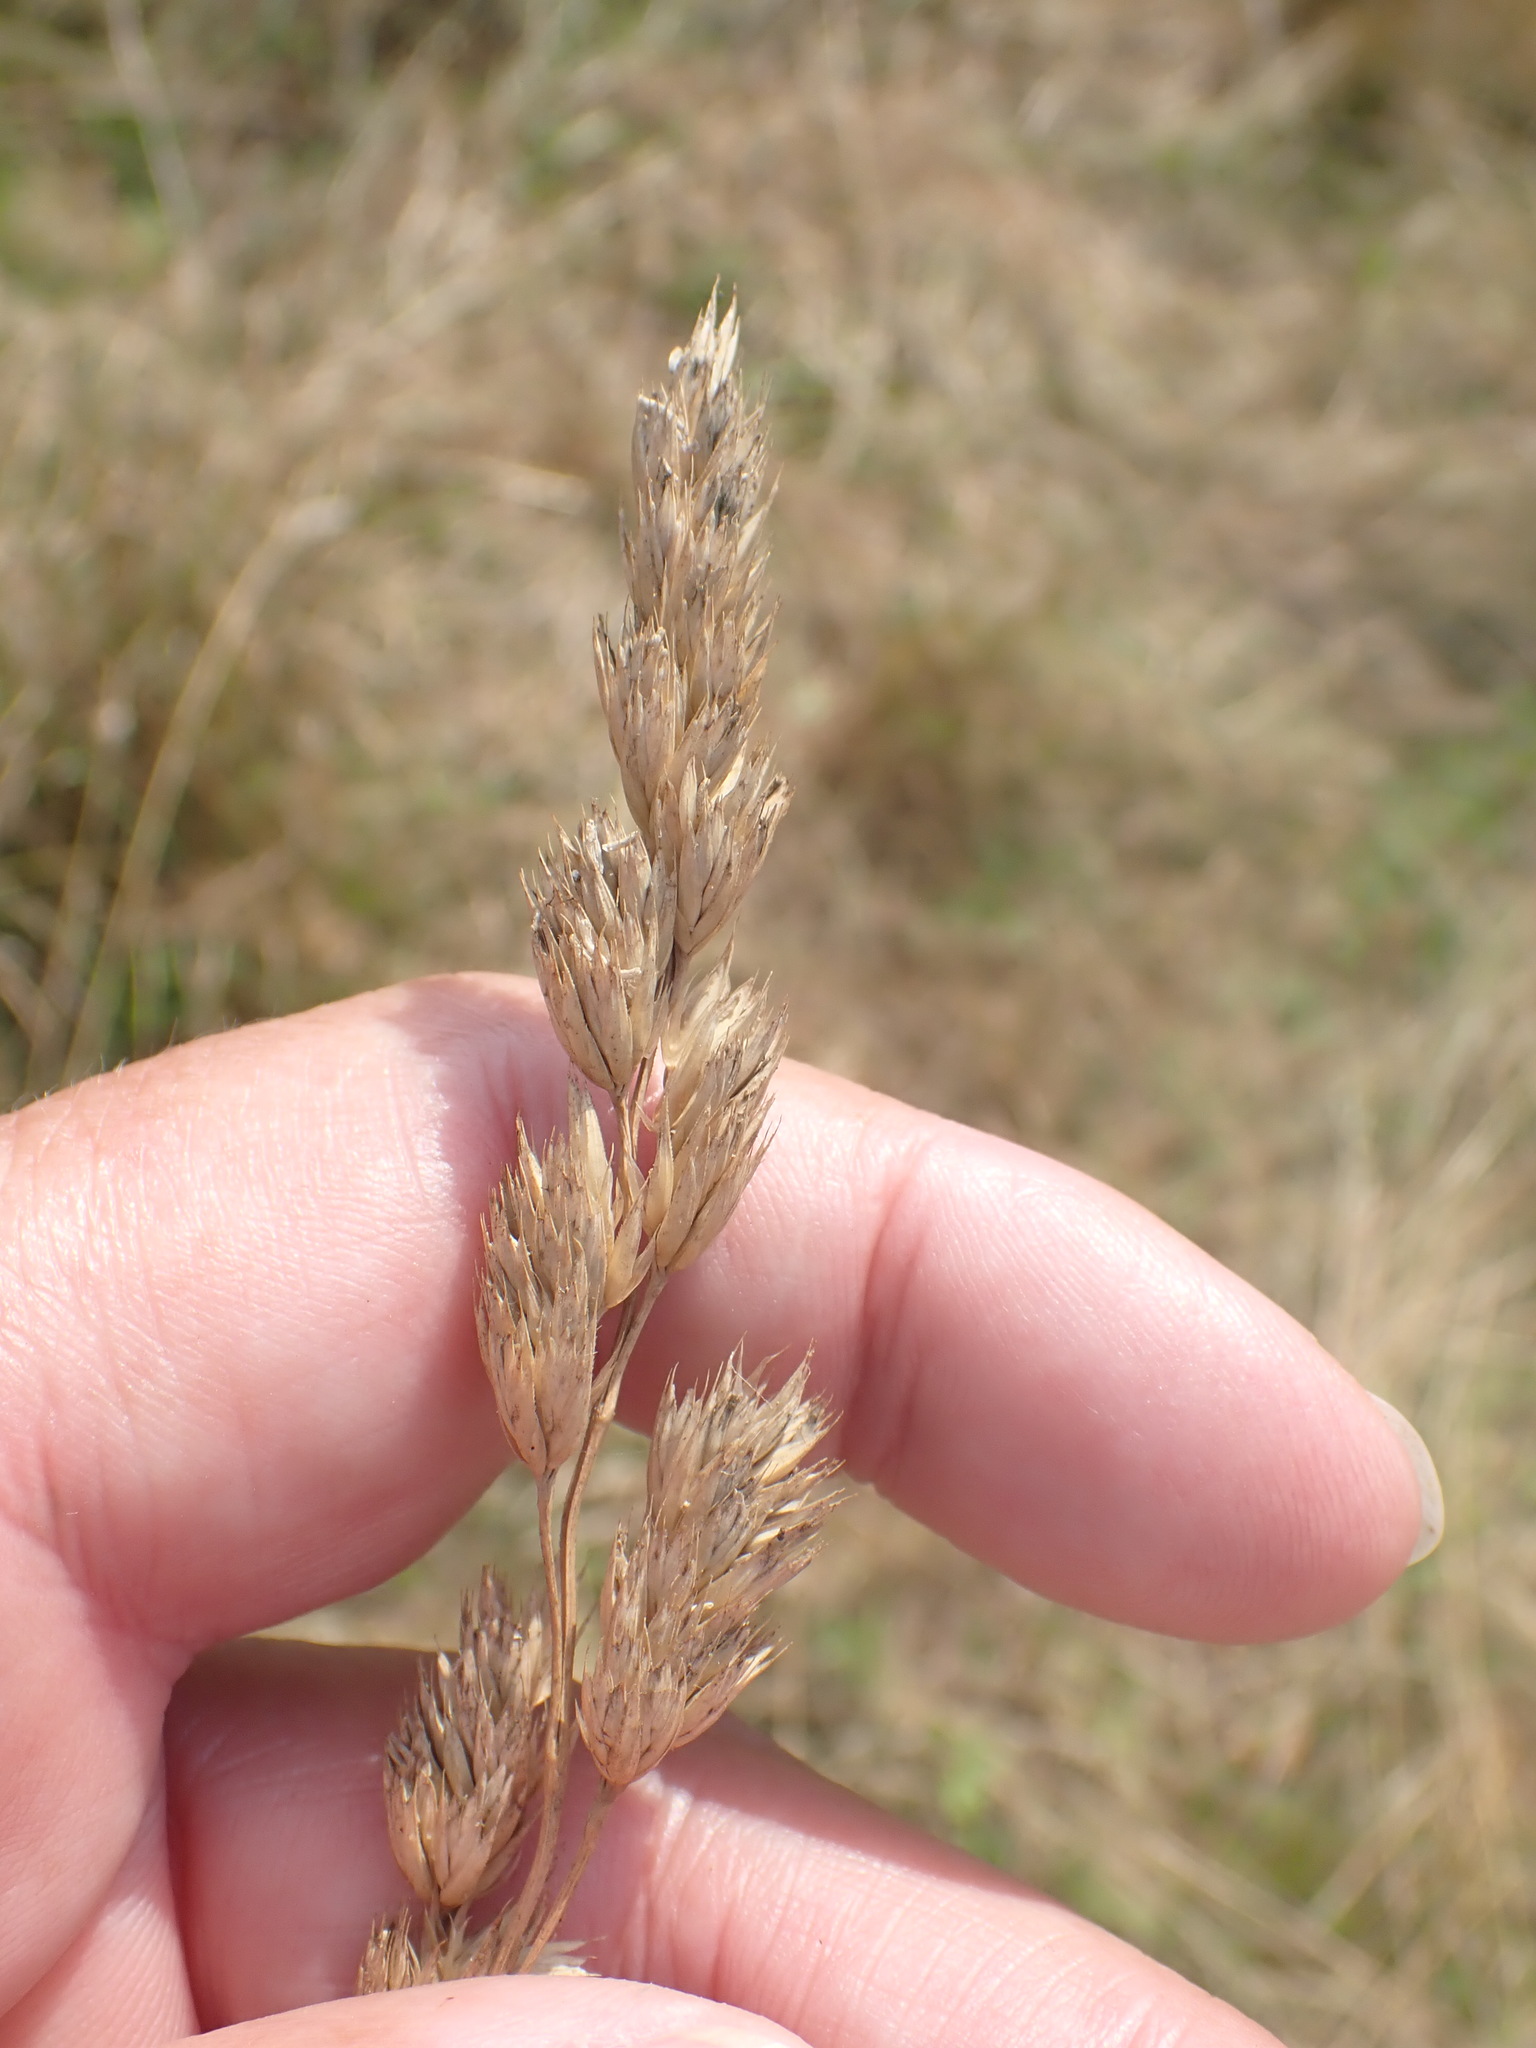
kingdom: Plantae
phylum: Tracheophyta
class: Liliopsida
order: Poales
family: Poaceae
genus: Dactylis
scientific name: Dactylis glomerata
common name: Orchardgrass
